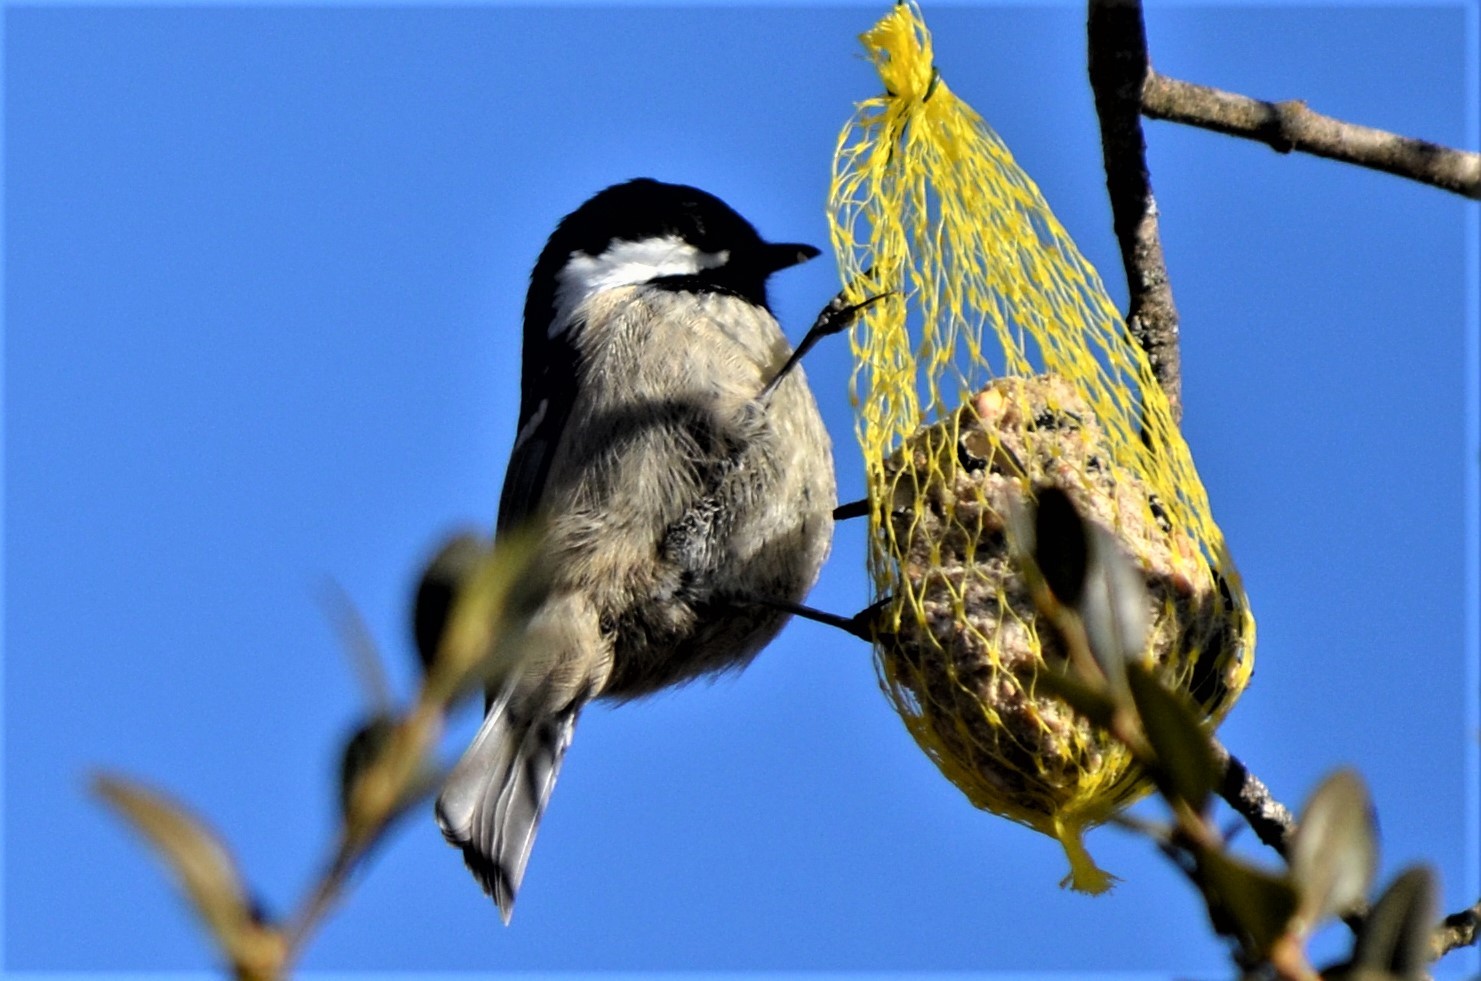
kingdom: Animalia
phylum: Chordata
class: Aves
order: Passeriformes
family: Paridae
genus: Periparus
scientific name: Periparus ater
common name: Coal tit
